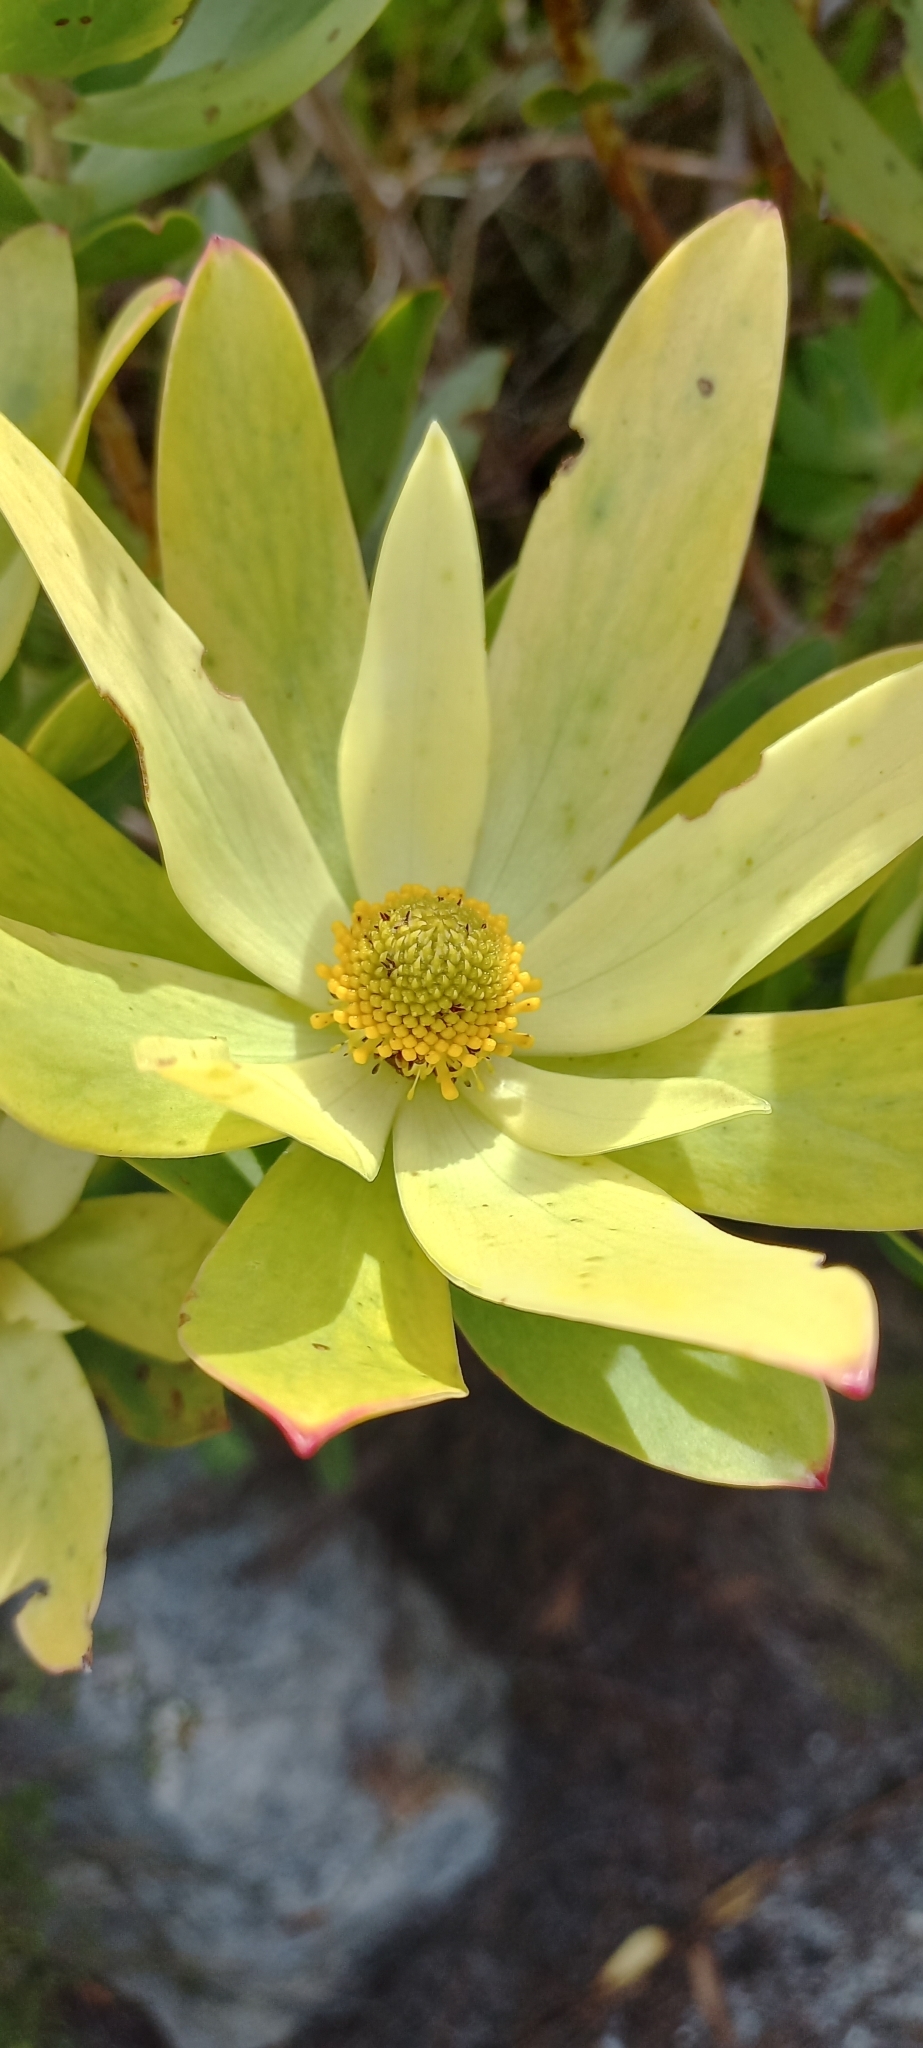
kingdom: Plantae
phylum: Tracheophyta
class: Magnoliopsida
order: Proteales
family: Proteaceae
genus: Leucadendron
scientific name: Leucadendron gandogeri
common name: Broad-leaf conebush
